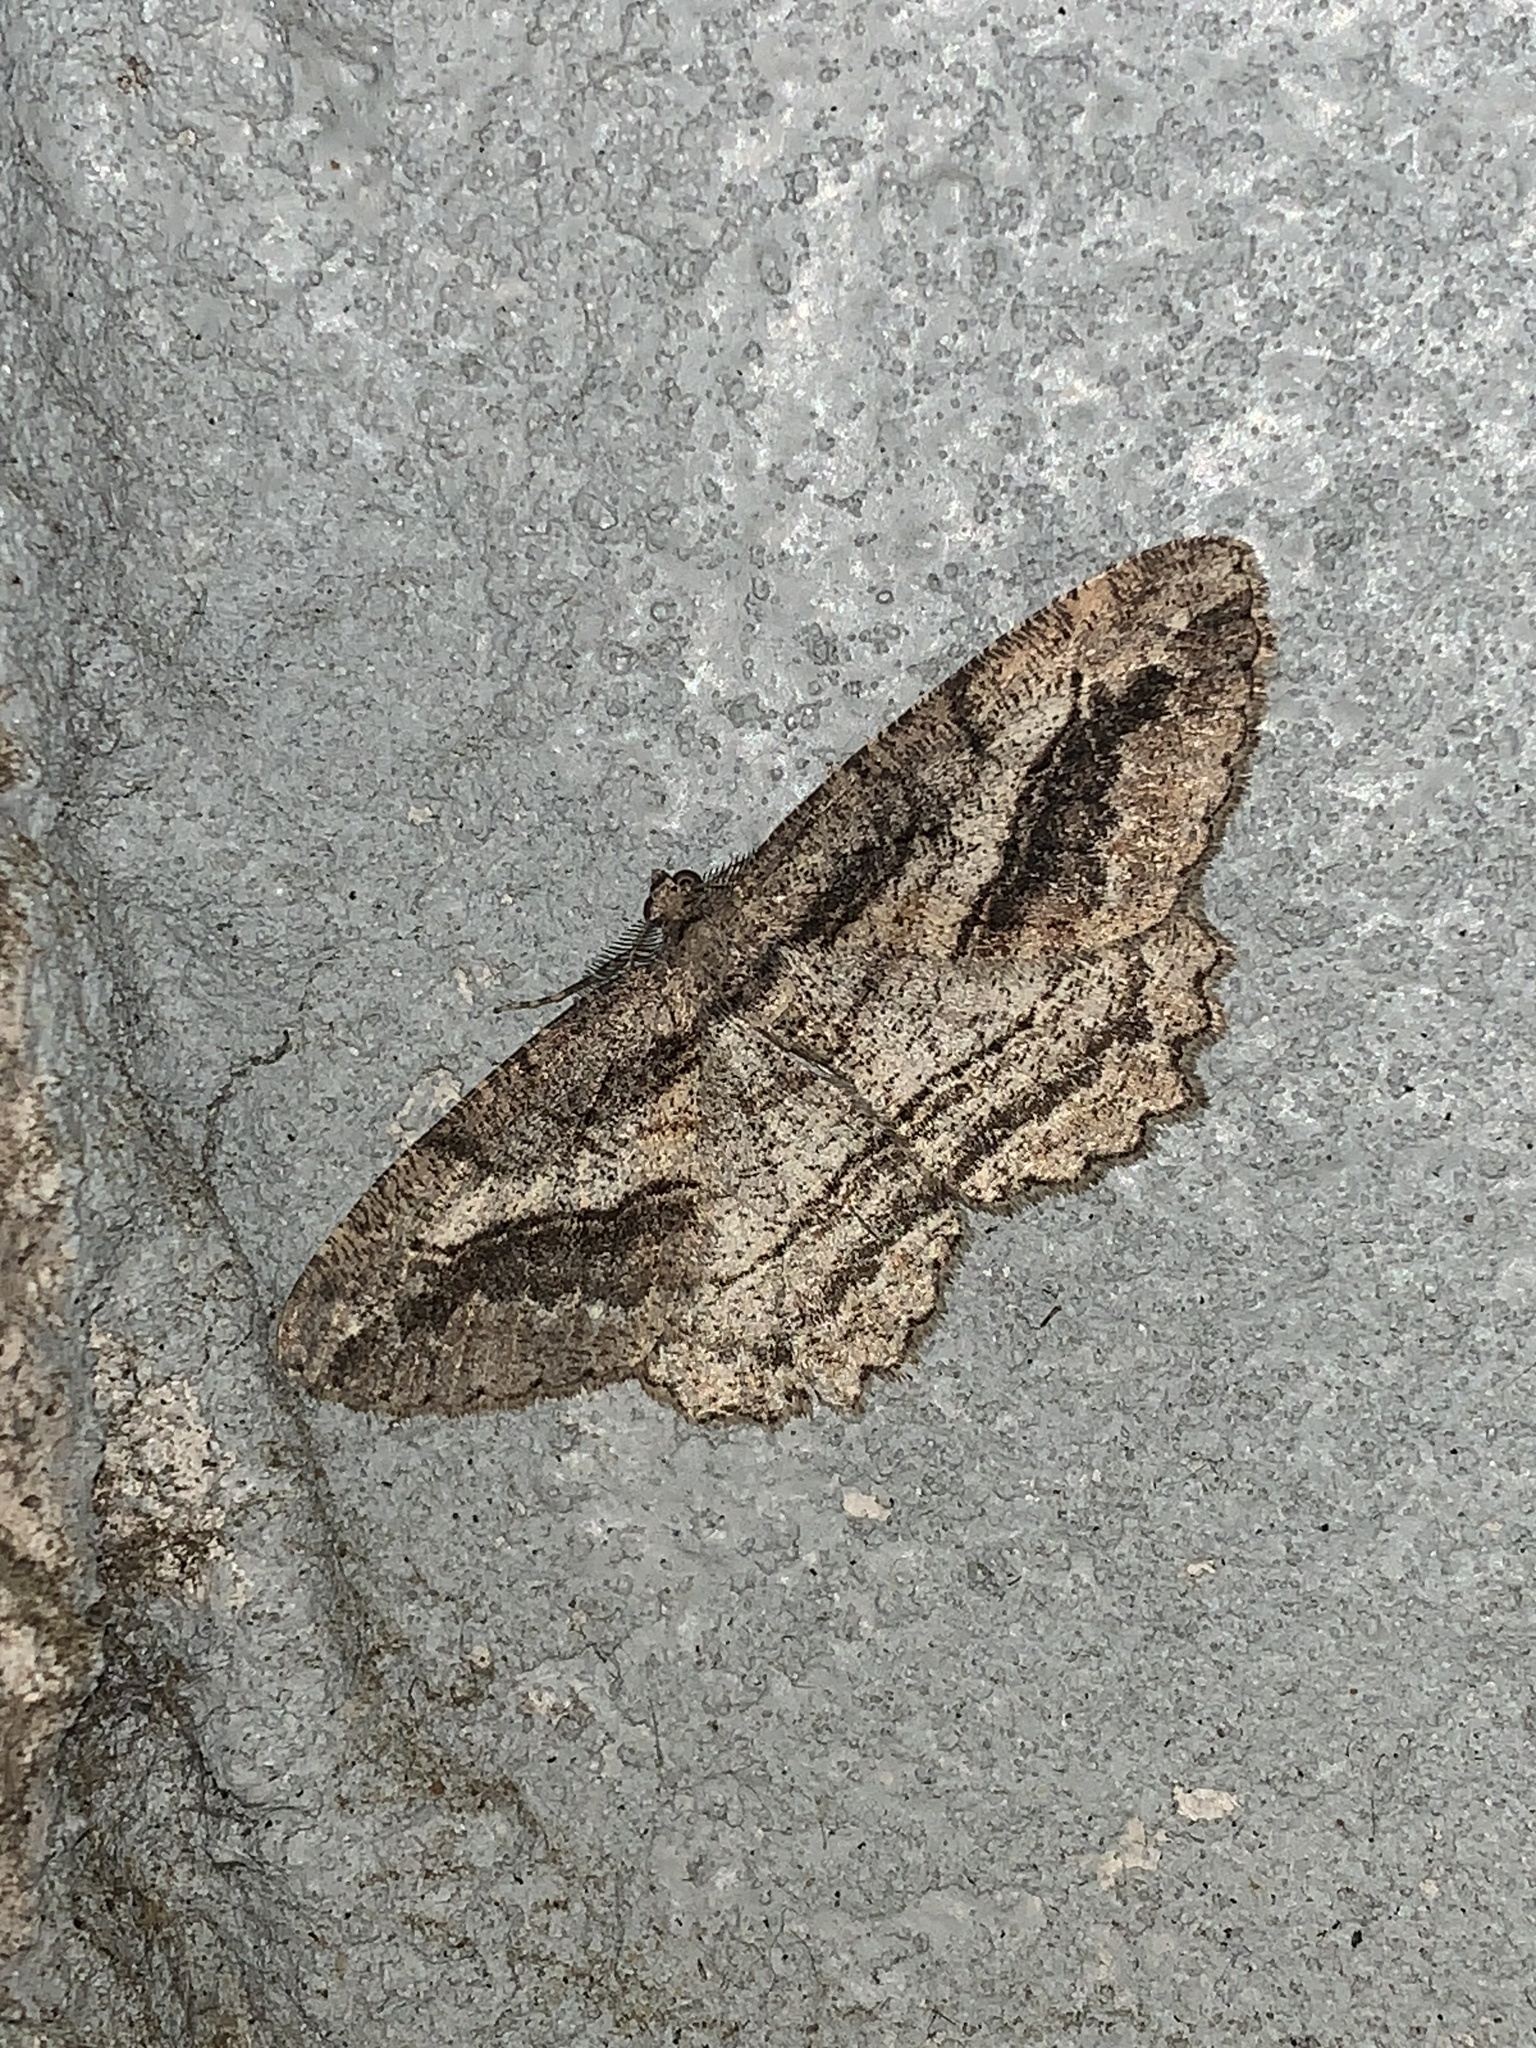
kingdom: Animalia
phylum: Arthropoda
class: Insecta
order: Lepidoptera
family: Geometridae
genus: Neoalcis
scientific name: Neoalcis californiaria
